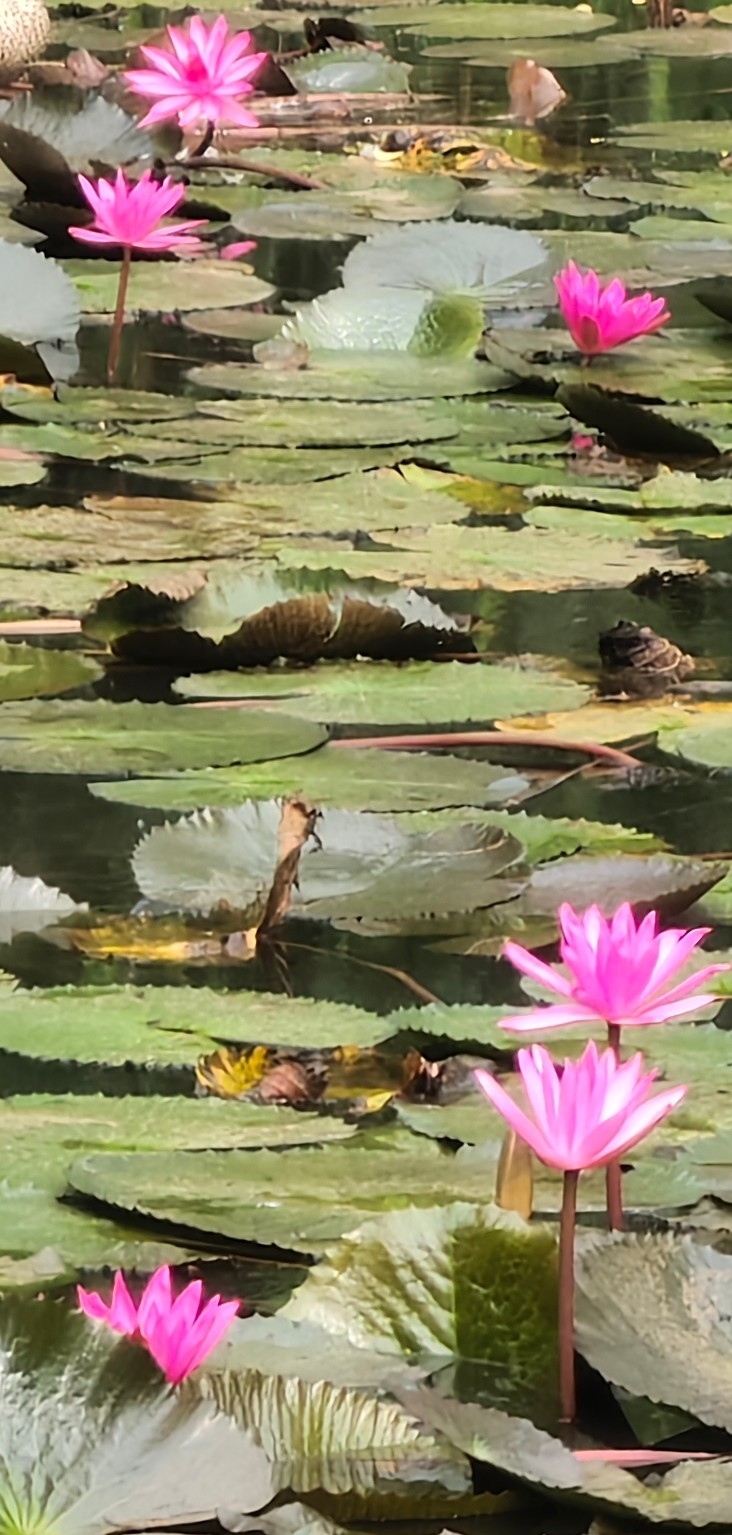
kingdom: Plantae
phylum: Tracheophyta
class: Magnoliopsida
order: Nymphaeales
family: Nymphaeaceae
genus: Nymphaea
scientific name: Nymphaea rubra
